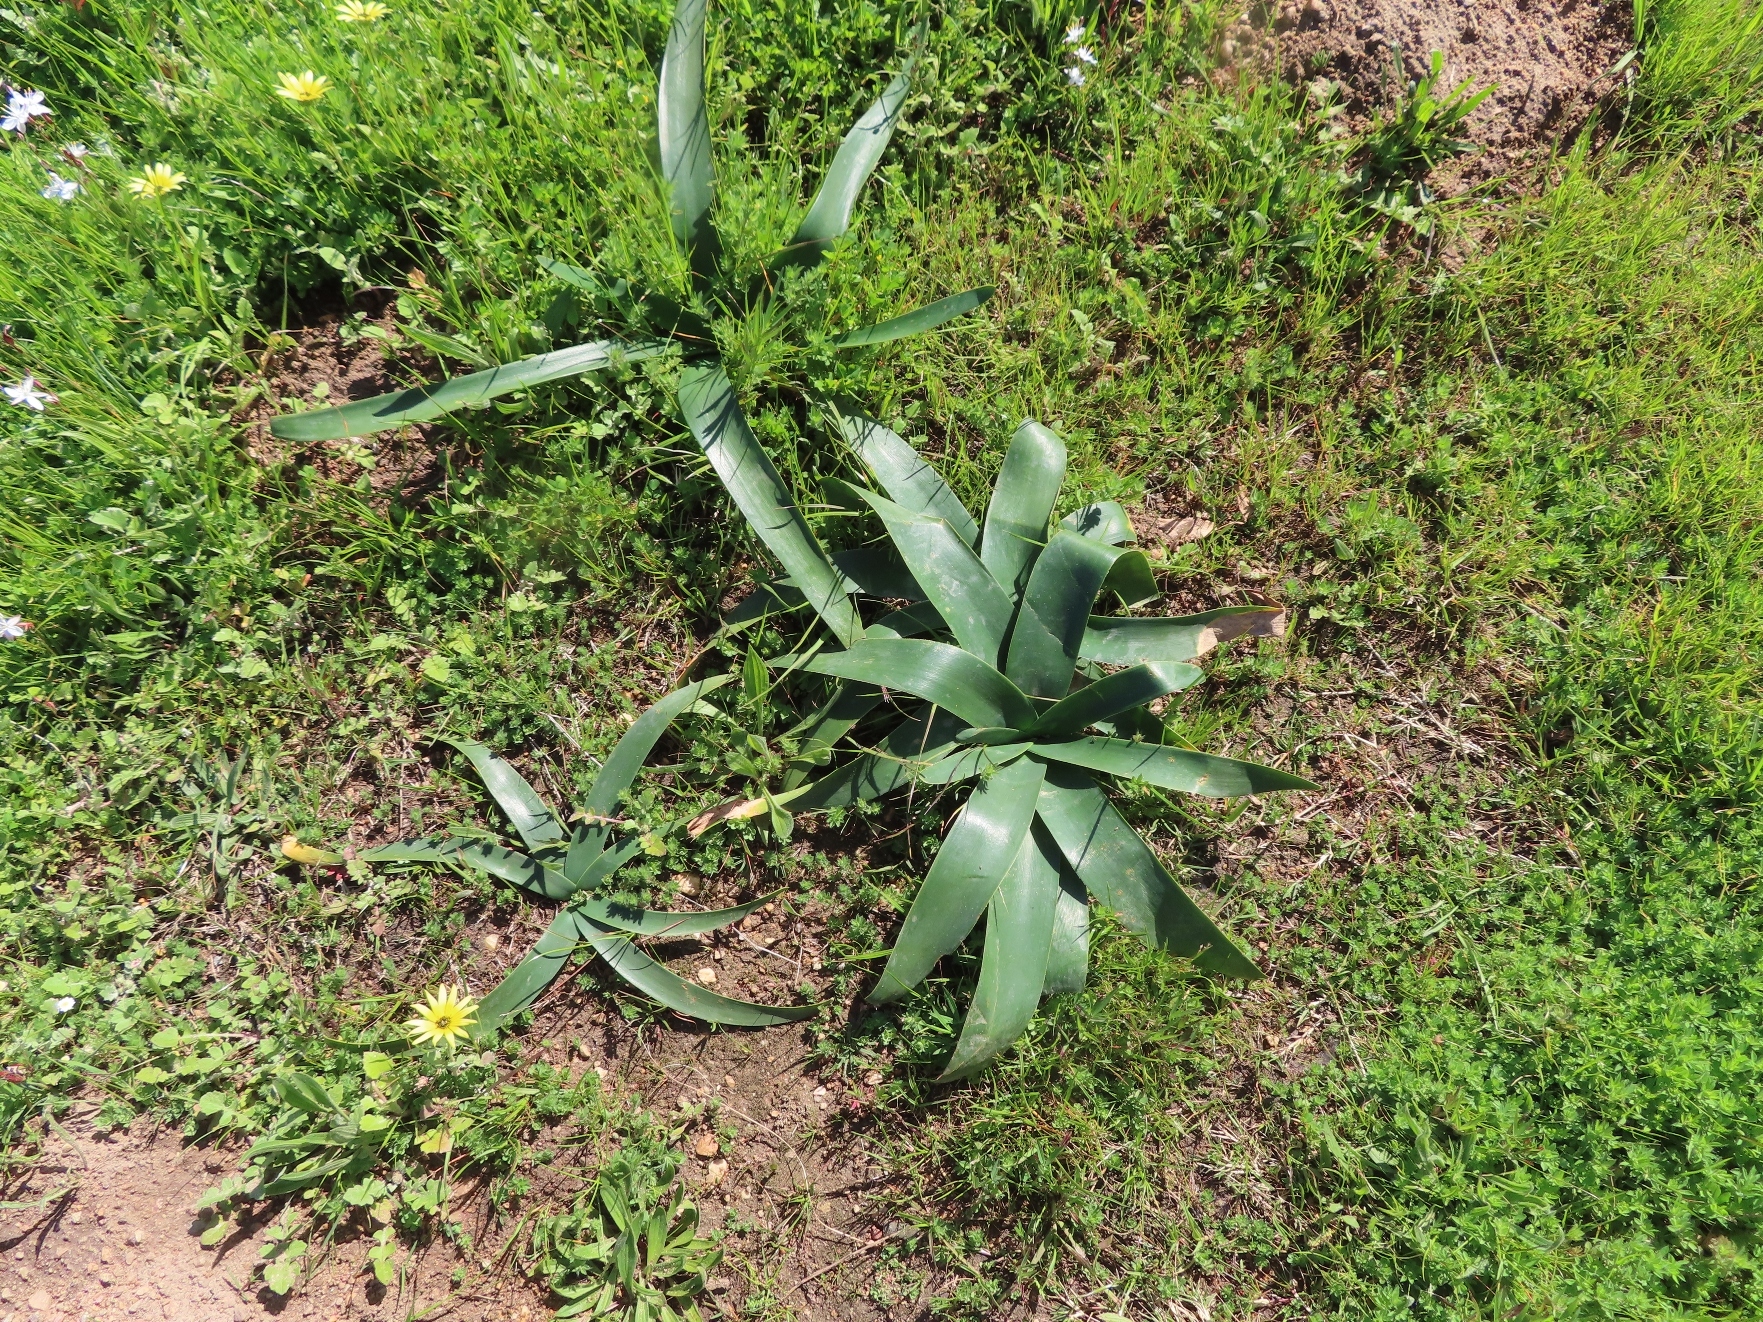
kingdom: Plantae
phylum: Tracheophyta
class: Liliopsida
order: Asparagales
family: Amaryllidaceae
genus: Ammocharis
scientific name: Ammocharis longifolia
